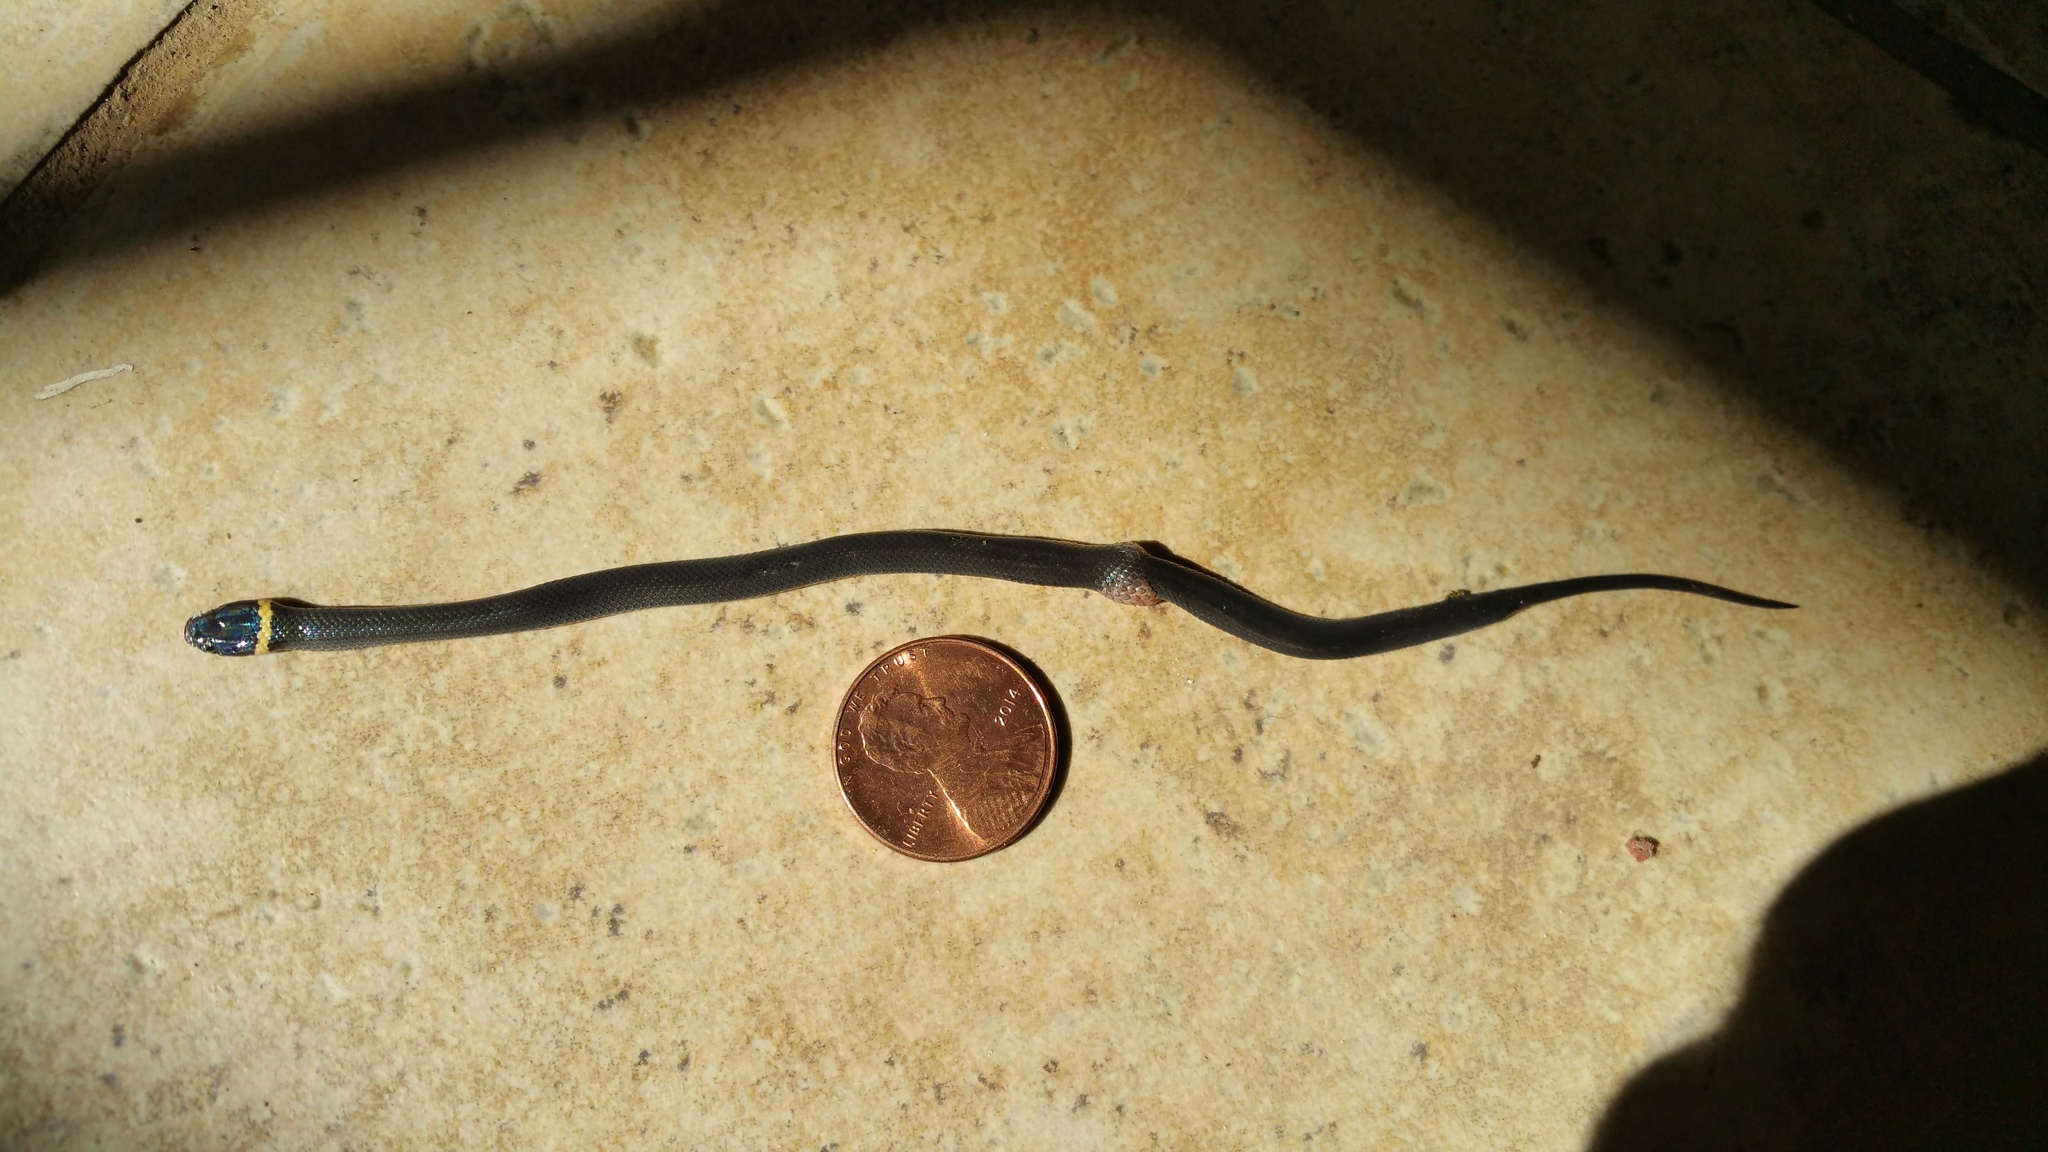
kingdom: Animalia
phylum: Chordata
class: Squamata
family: Colubridae
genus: Diadophis
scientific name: Diadophis punctatus
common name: Ringneck snake
